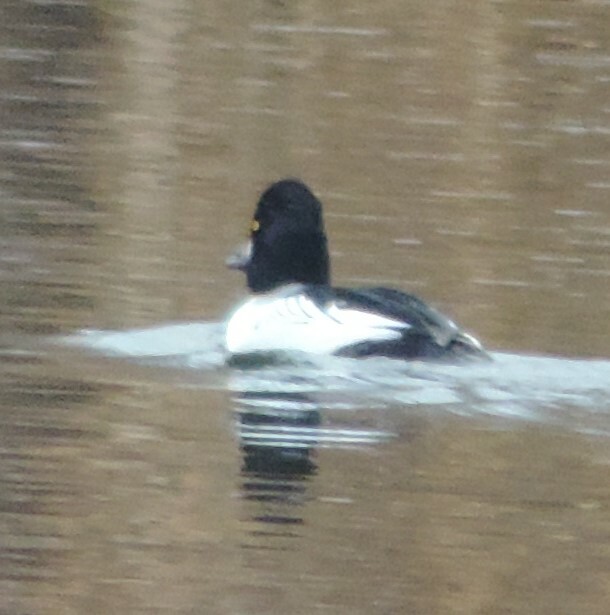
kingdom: Animalia
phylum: Chordata
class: Aves
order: Anseriformes
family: Anatidae
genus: Bucephala
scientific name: Bucephala clangula
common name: Common goldeneye
